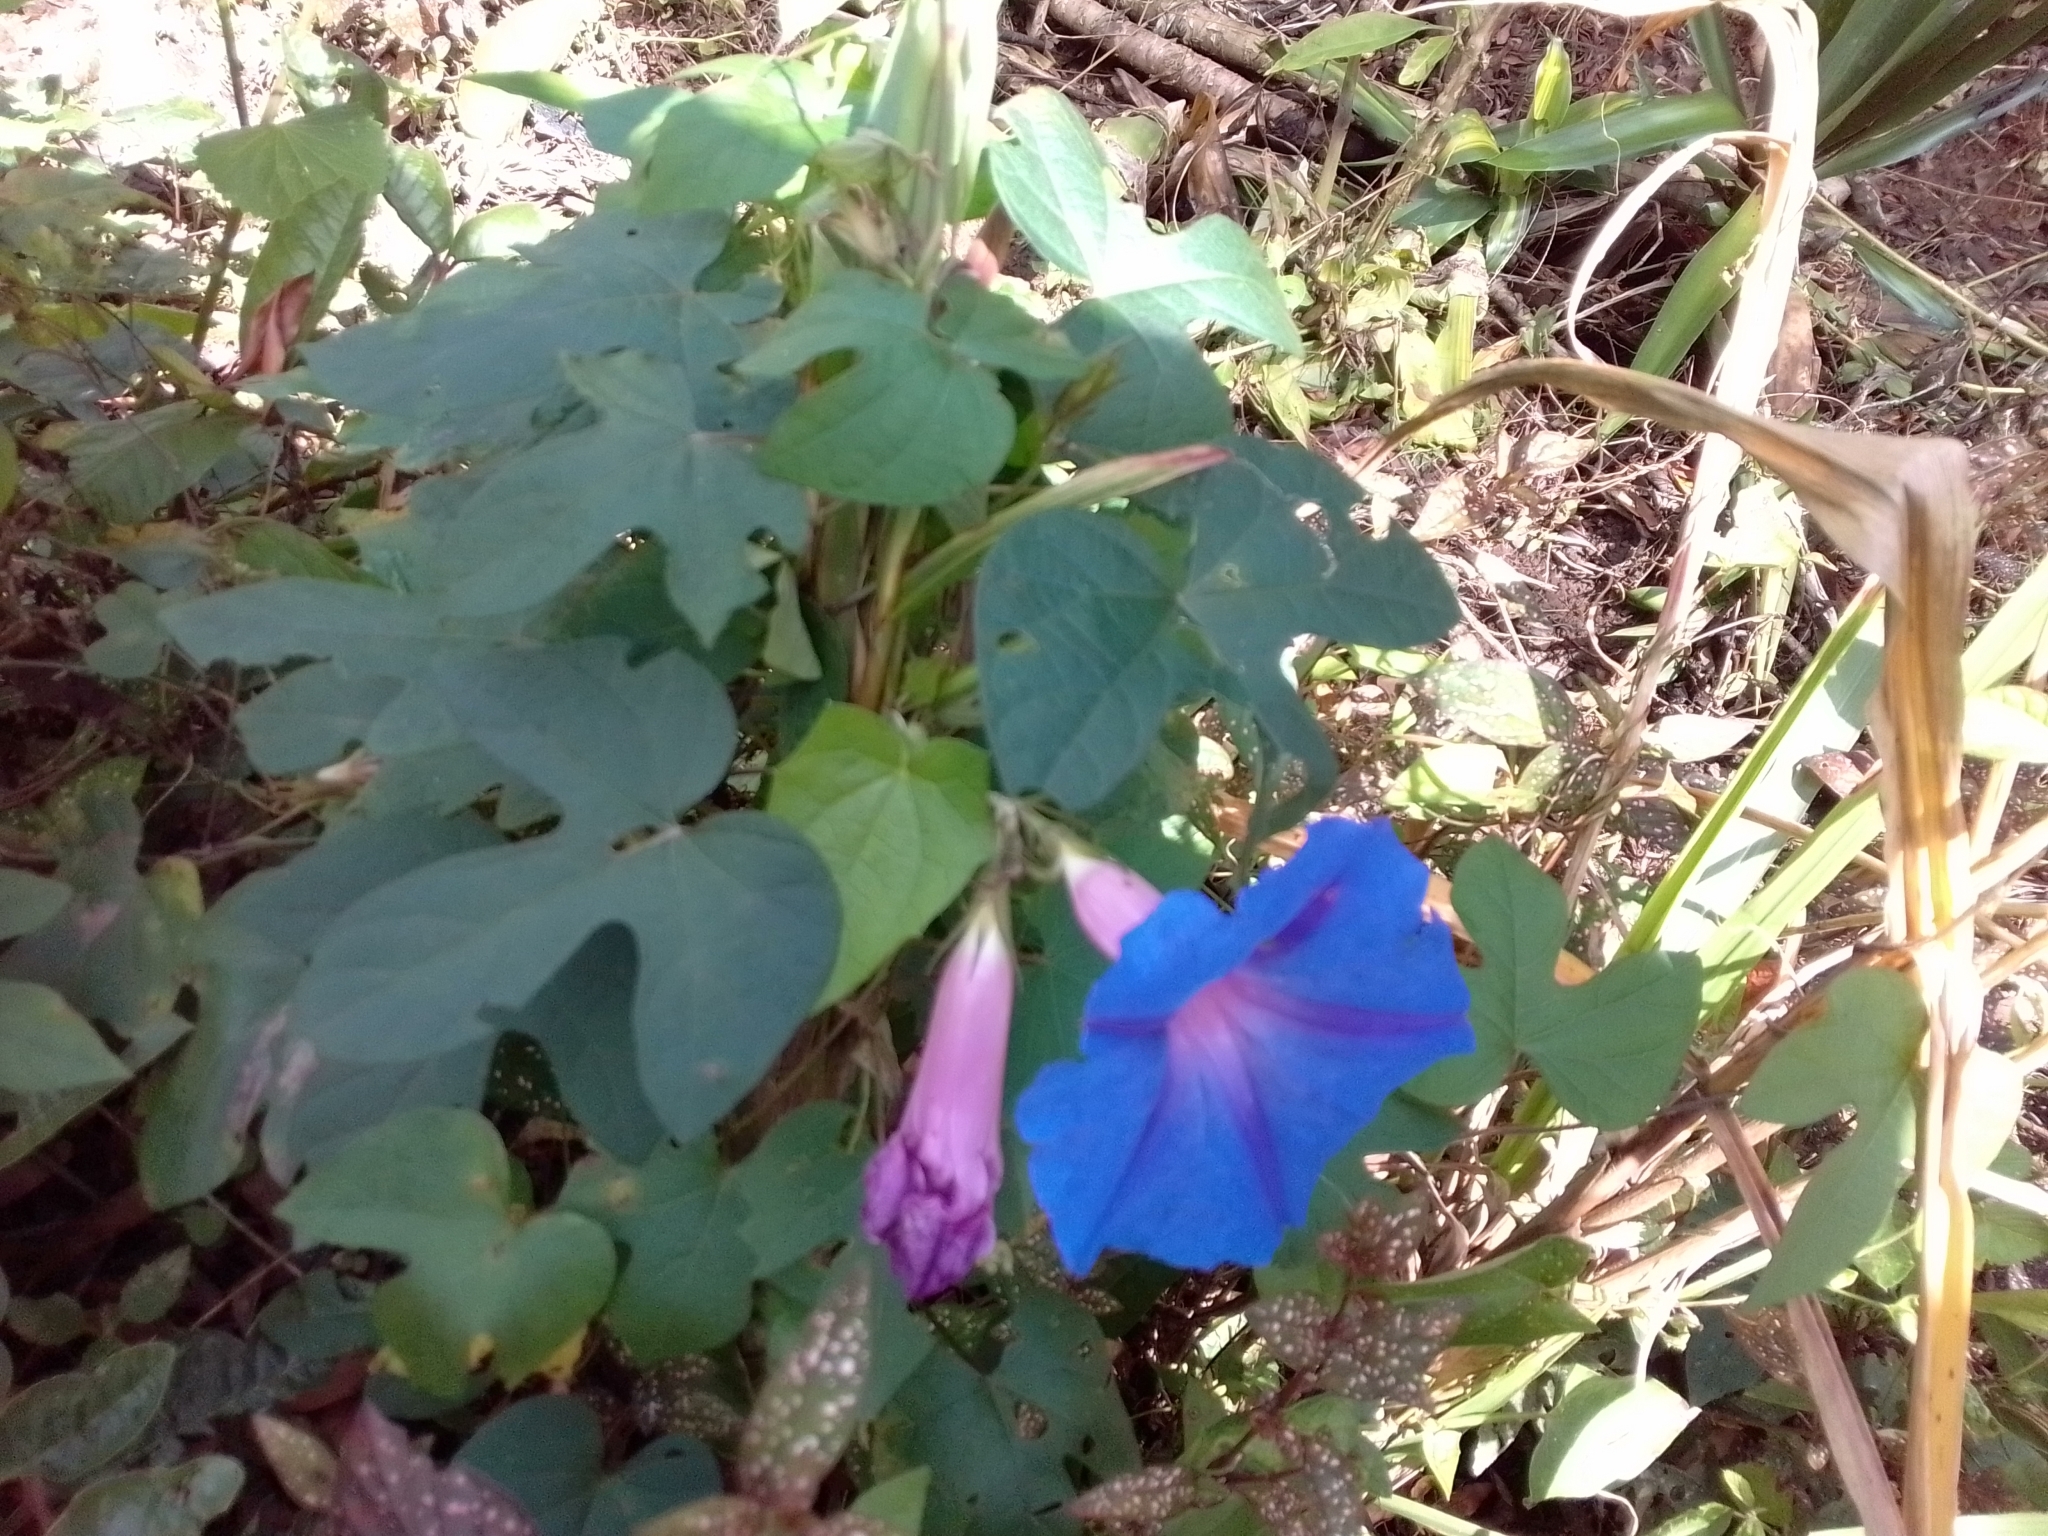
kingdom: Plantae
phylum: Tracheophyta
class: Magnoliopsida
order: Solanales
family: Convolvulaceae
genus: Ipomoea
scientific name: Ipomoea indica
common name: Blue dawnflower
